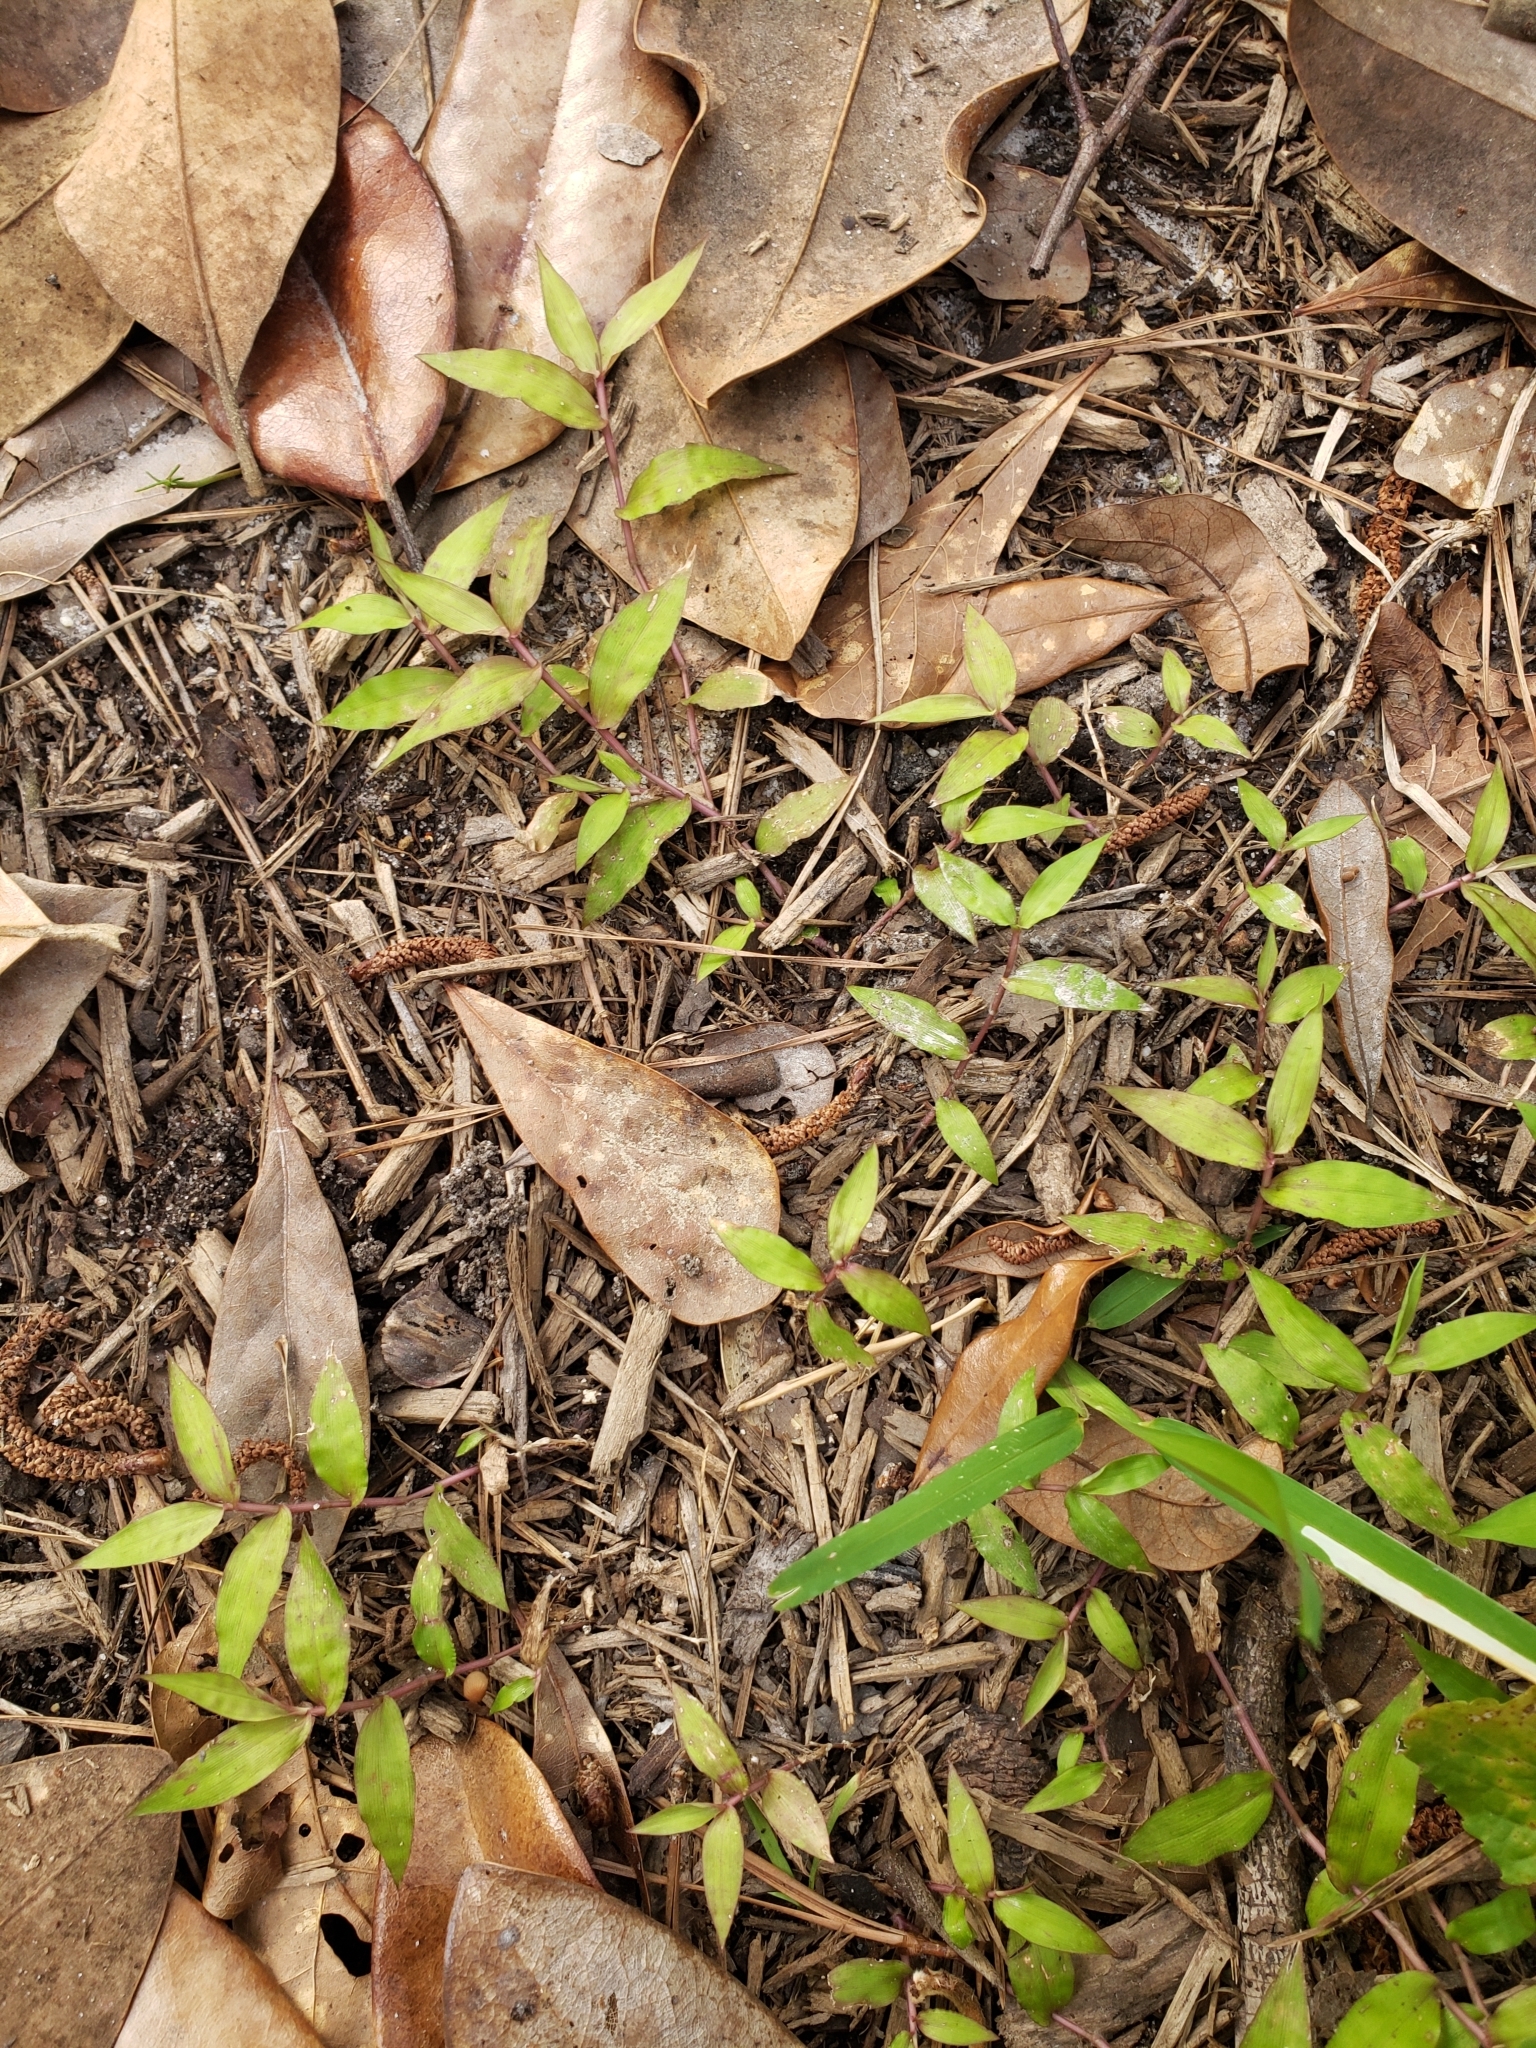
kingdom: Plantae
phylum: Tracheophyta
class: Liliopsida
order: Poales
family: Poaceae
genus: Oplismenus
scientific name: Oplismenus hirtellus
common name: Basketgrass
